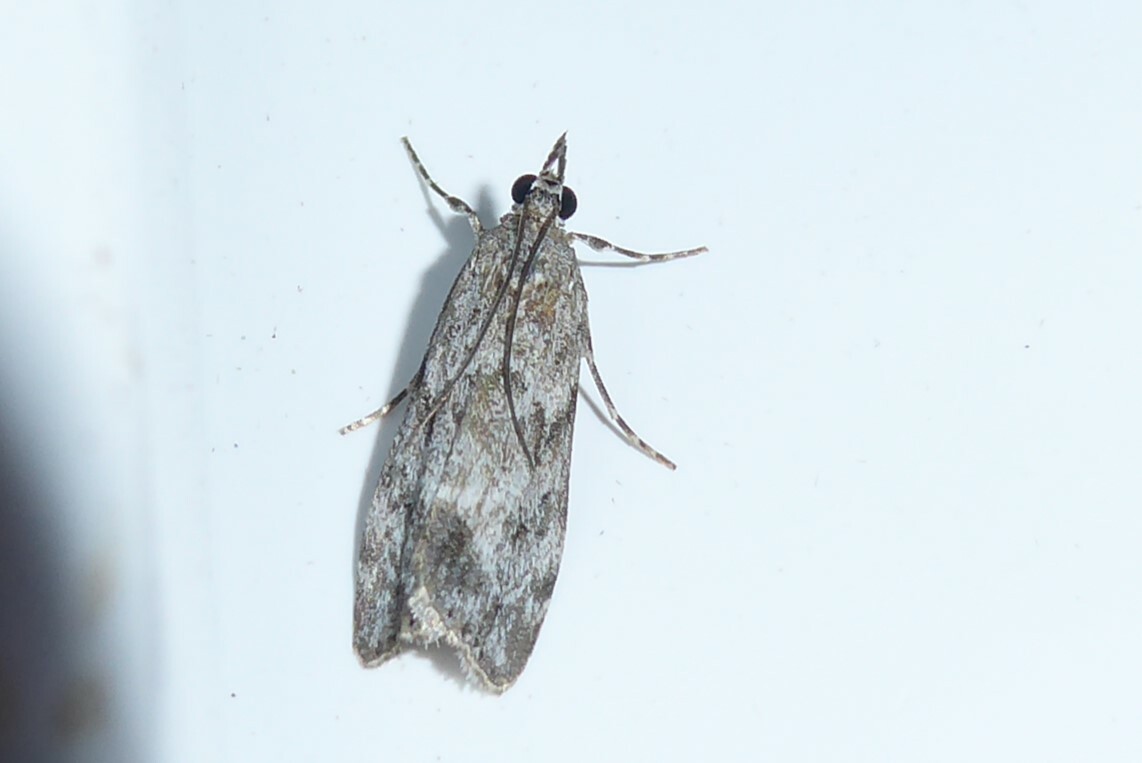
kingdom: Animalia
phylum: Arthropoda
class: Insecta
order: Lepidoptera
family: Crambidae
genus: Eudonia
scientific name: Eudonia rakaiensis
